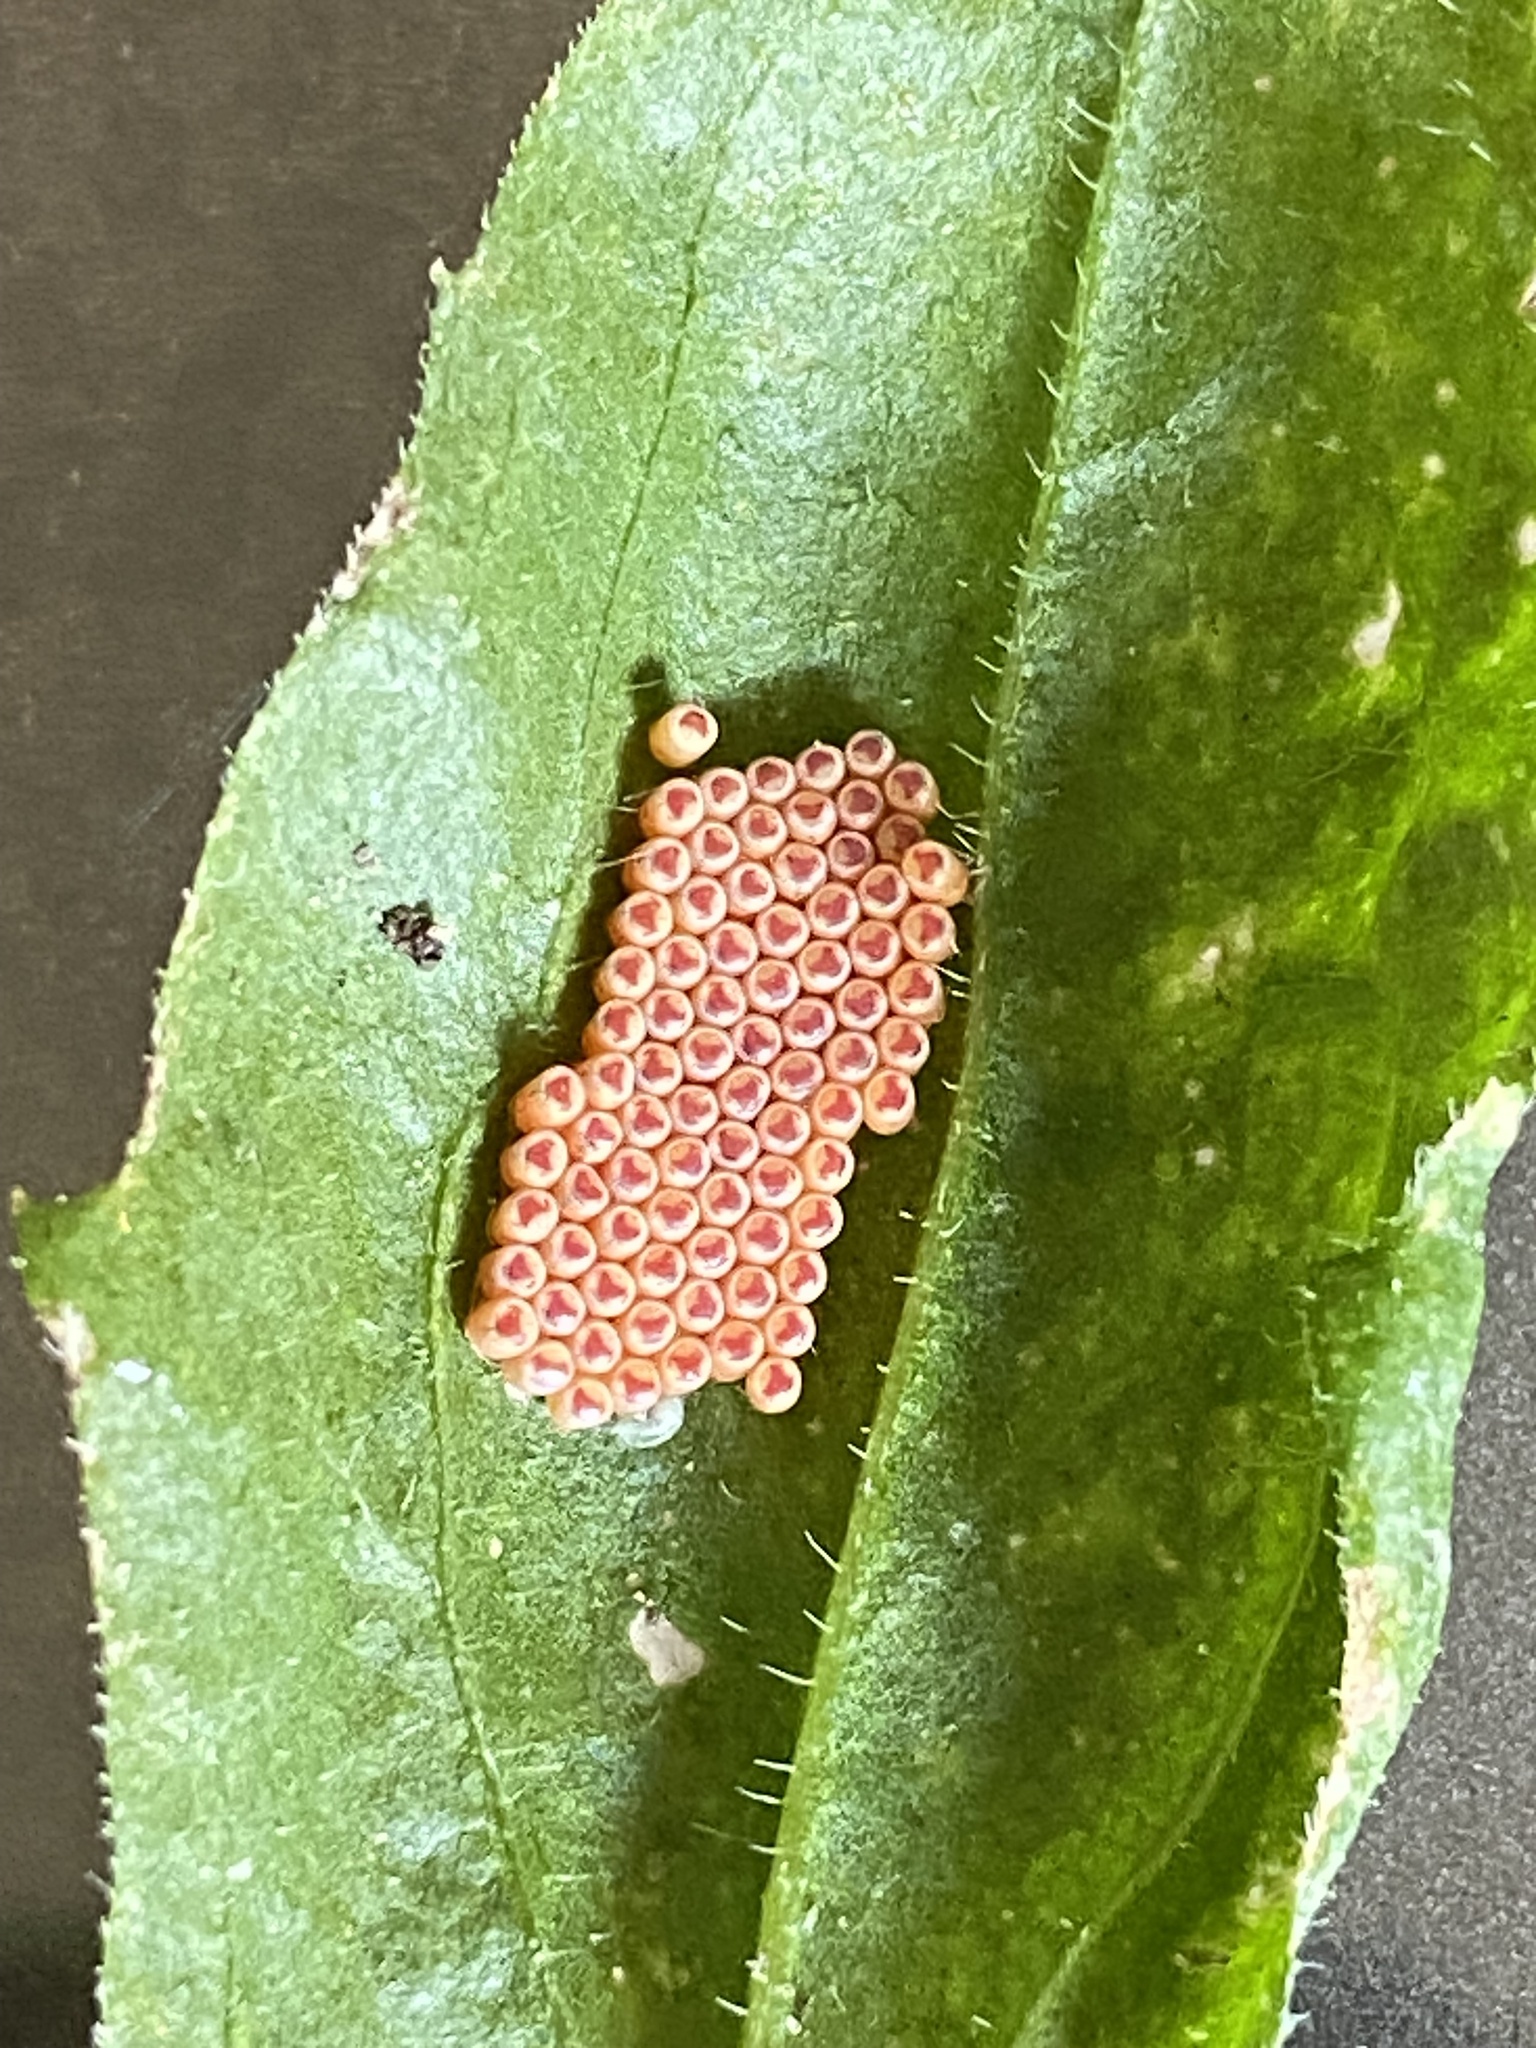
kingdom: Animalia
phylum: Arthropoda
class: Insecta
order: Hemiptera
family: Pentatomidae
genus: Nezara
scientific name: Nezara viridula
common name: Southern green stink bug
